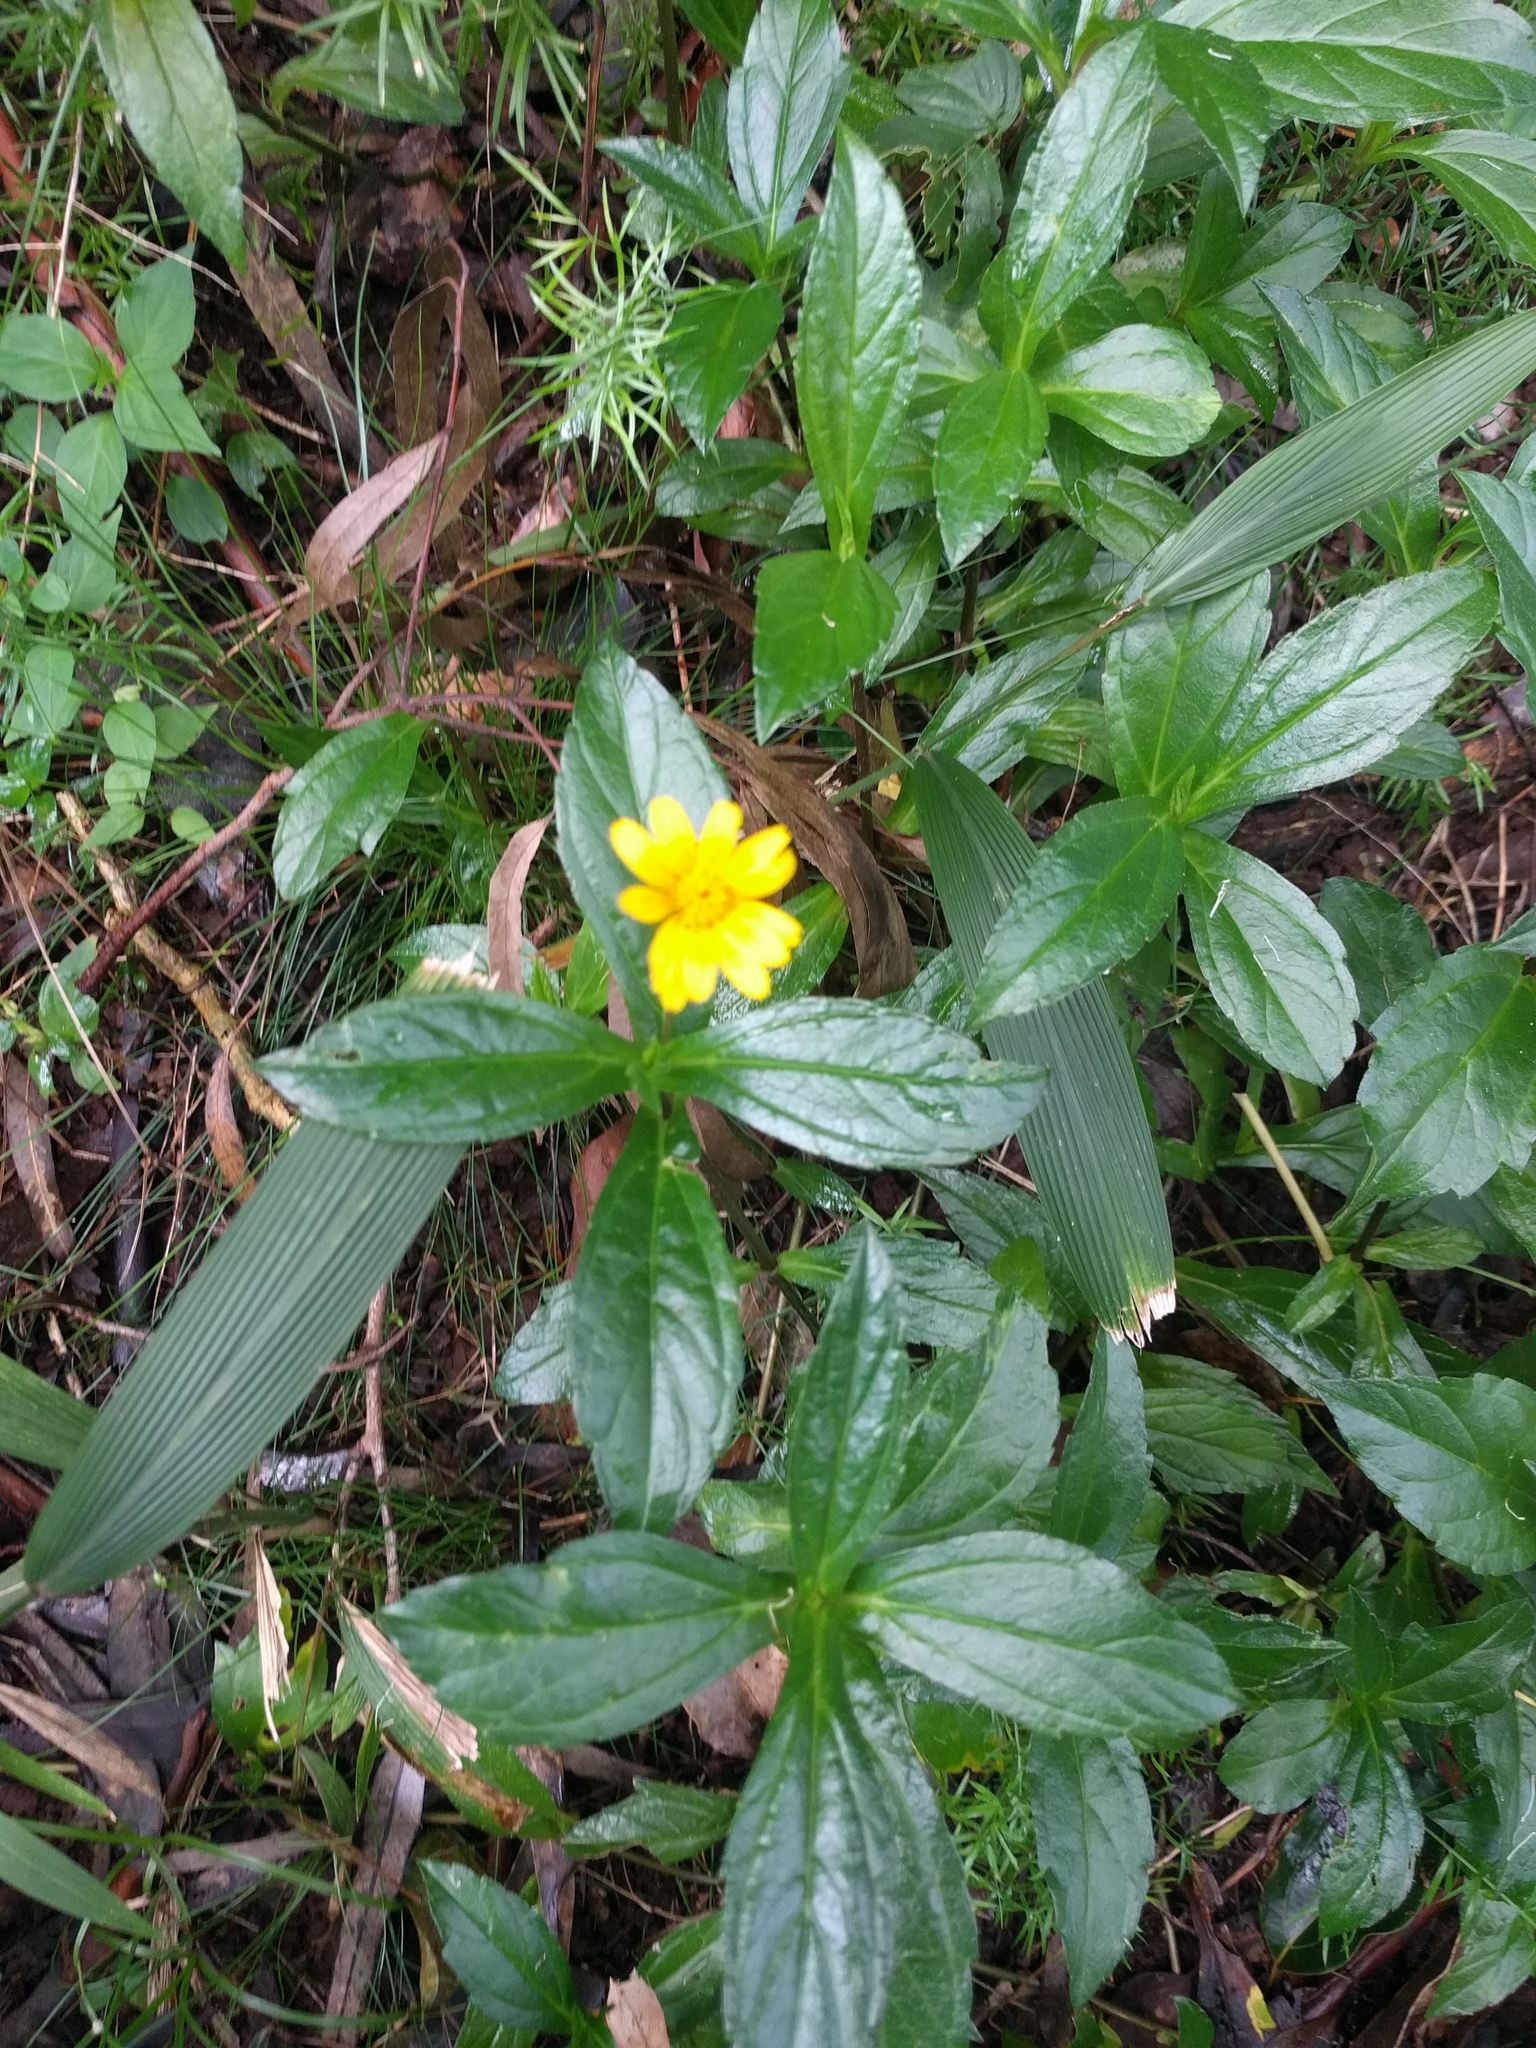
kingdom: Plantae
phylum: Tracheophyta
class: Magnoliopsida
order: Asterales
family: Asteraceae
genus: Sphagneticola
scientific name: Sphagneticola trilobata
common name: Bay biscayne creeping-oxeye
